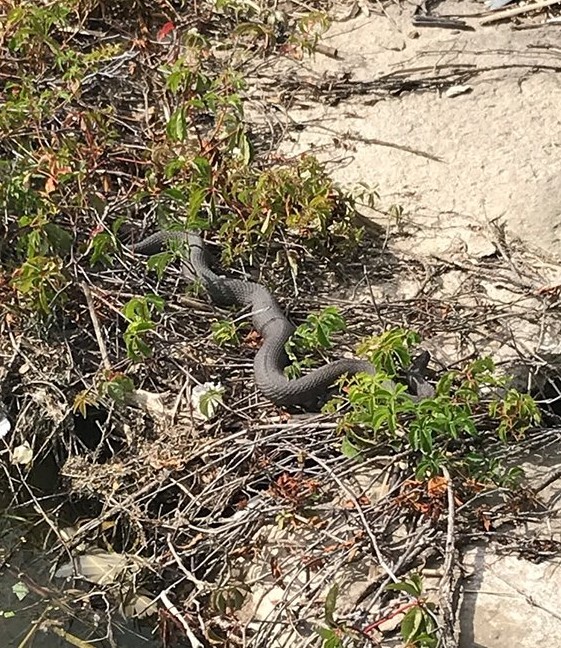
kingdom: Animalia
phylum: Chordata
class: Squamata
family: Colubridae
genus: Nerodia
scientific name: Nerodia sipedon
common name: Northern water snake
